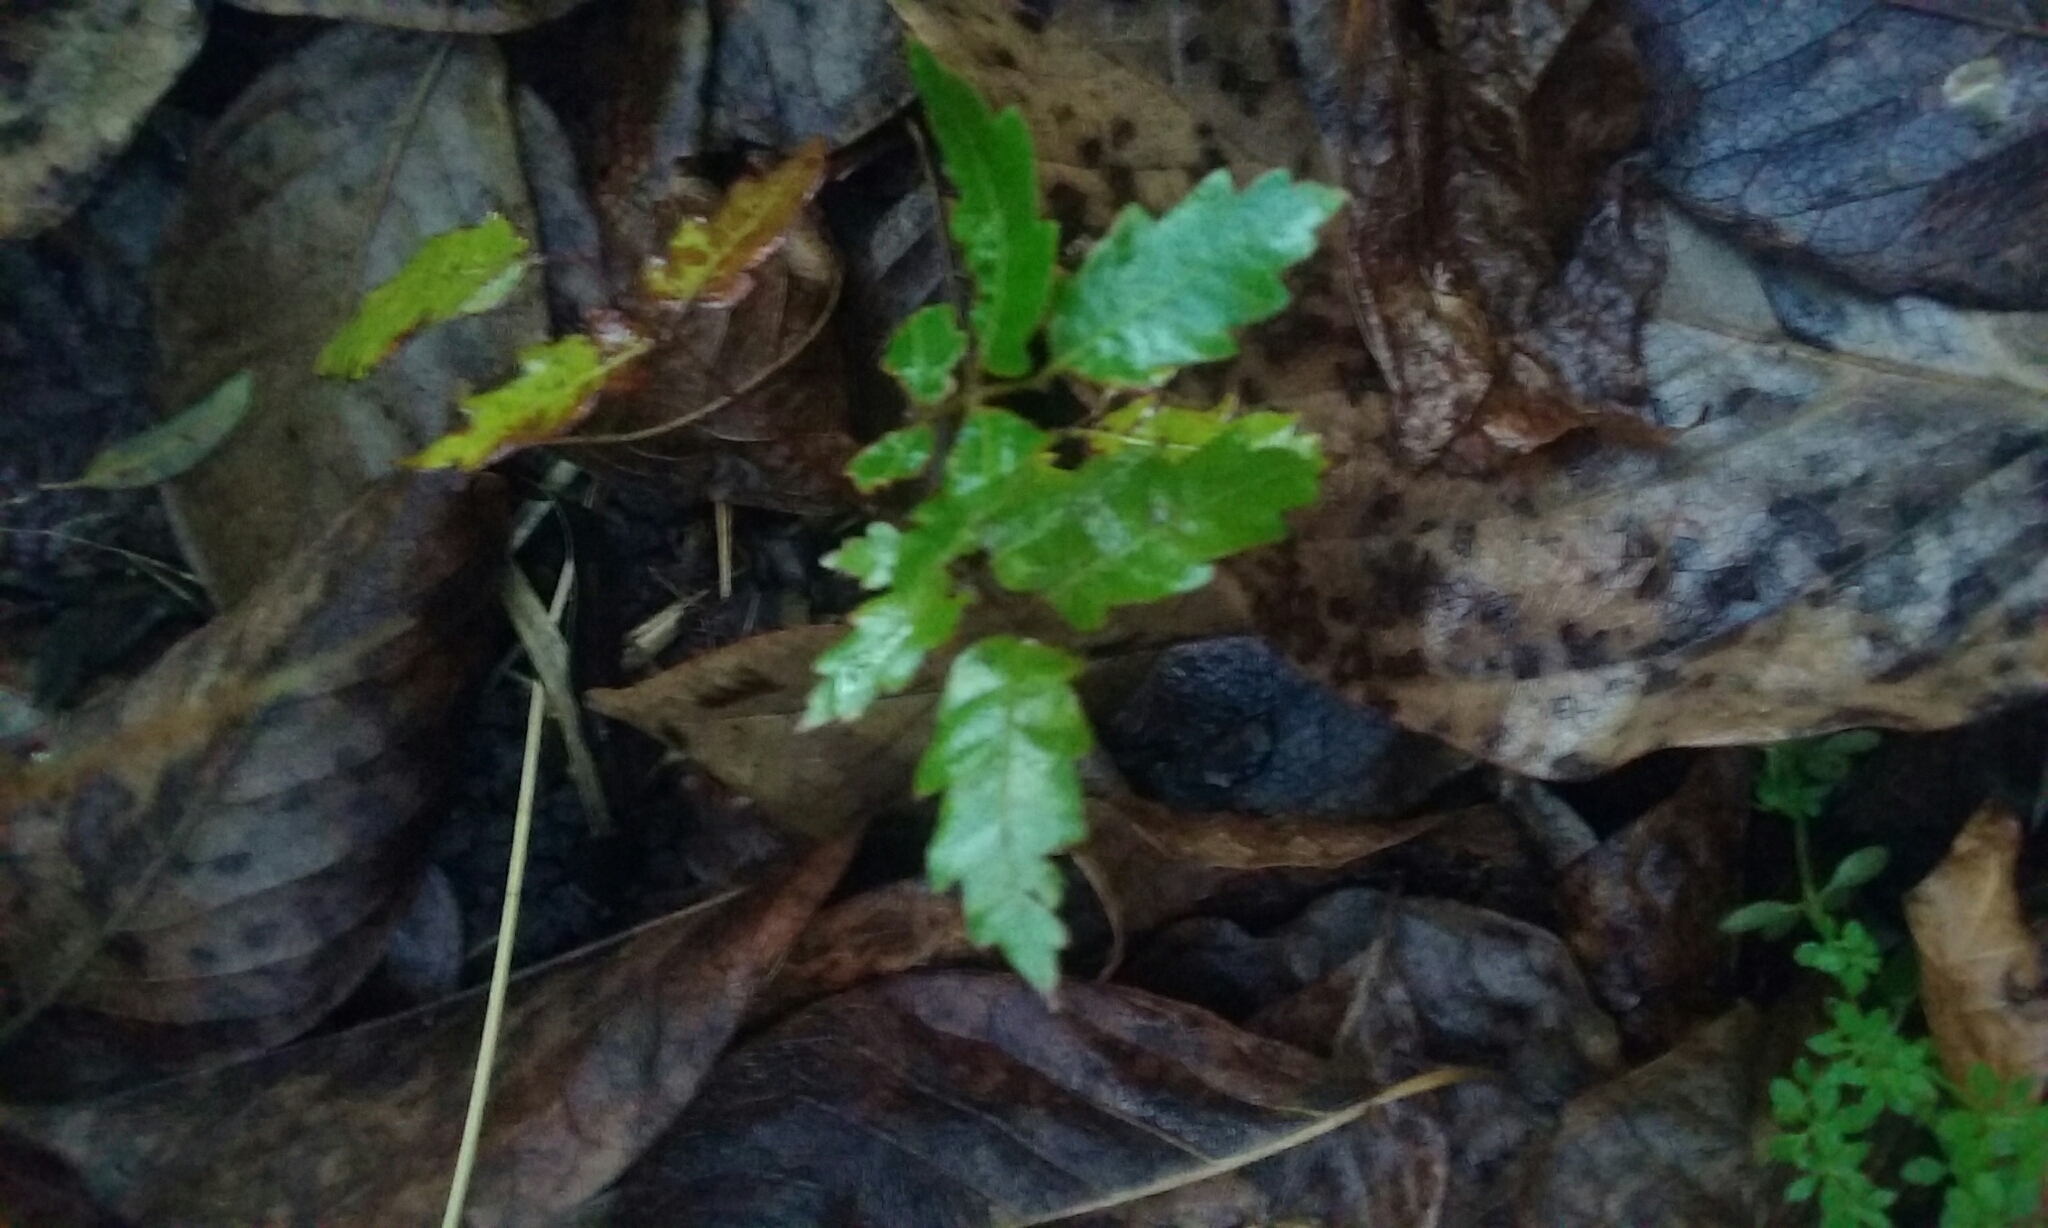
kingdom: Plantae
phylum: Tracheophyta
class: Magnoliopsida
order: Sapindales
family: Sapindaceae
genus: Alectryon
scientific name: Alectryon excelsus
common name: Three kings titoki
